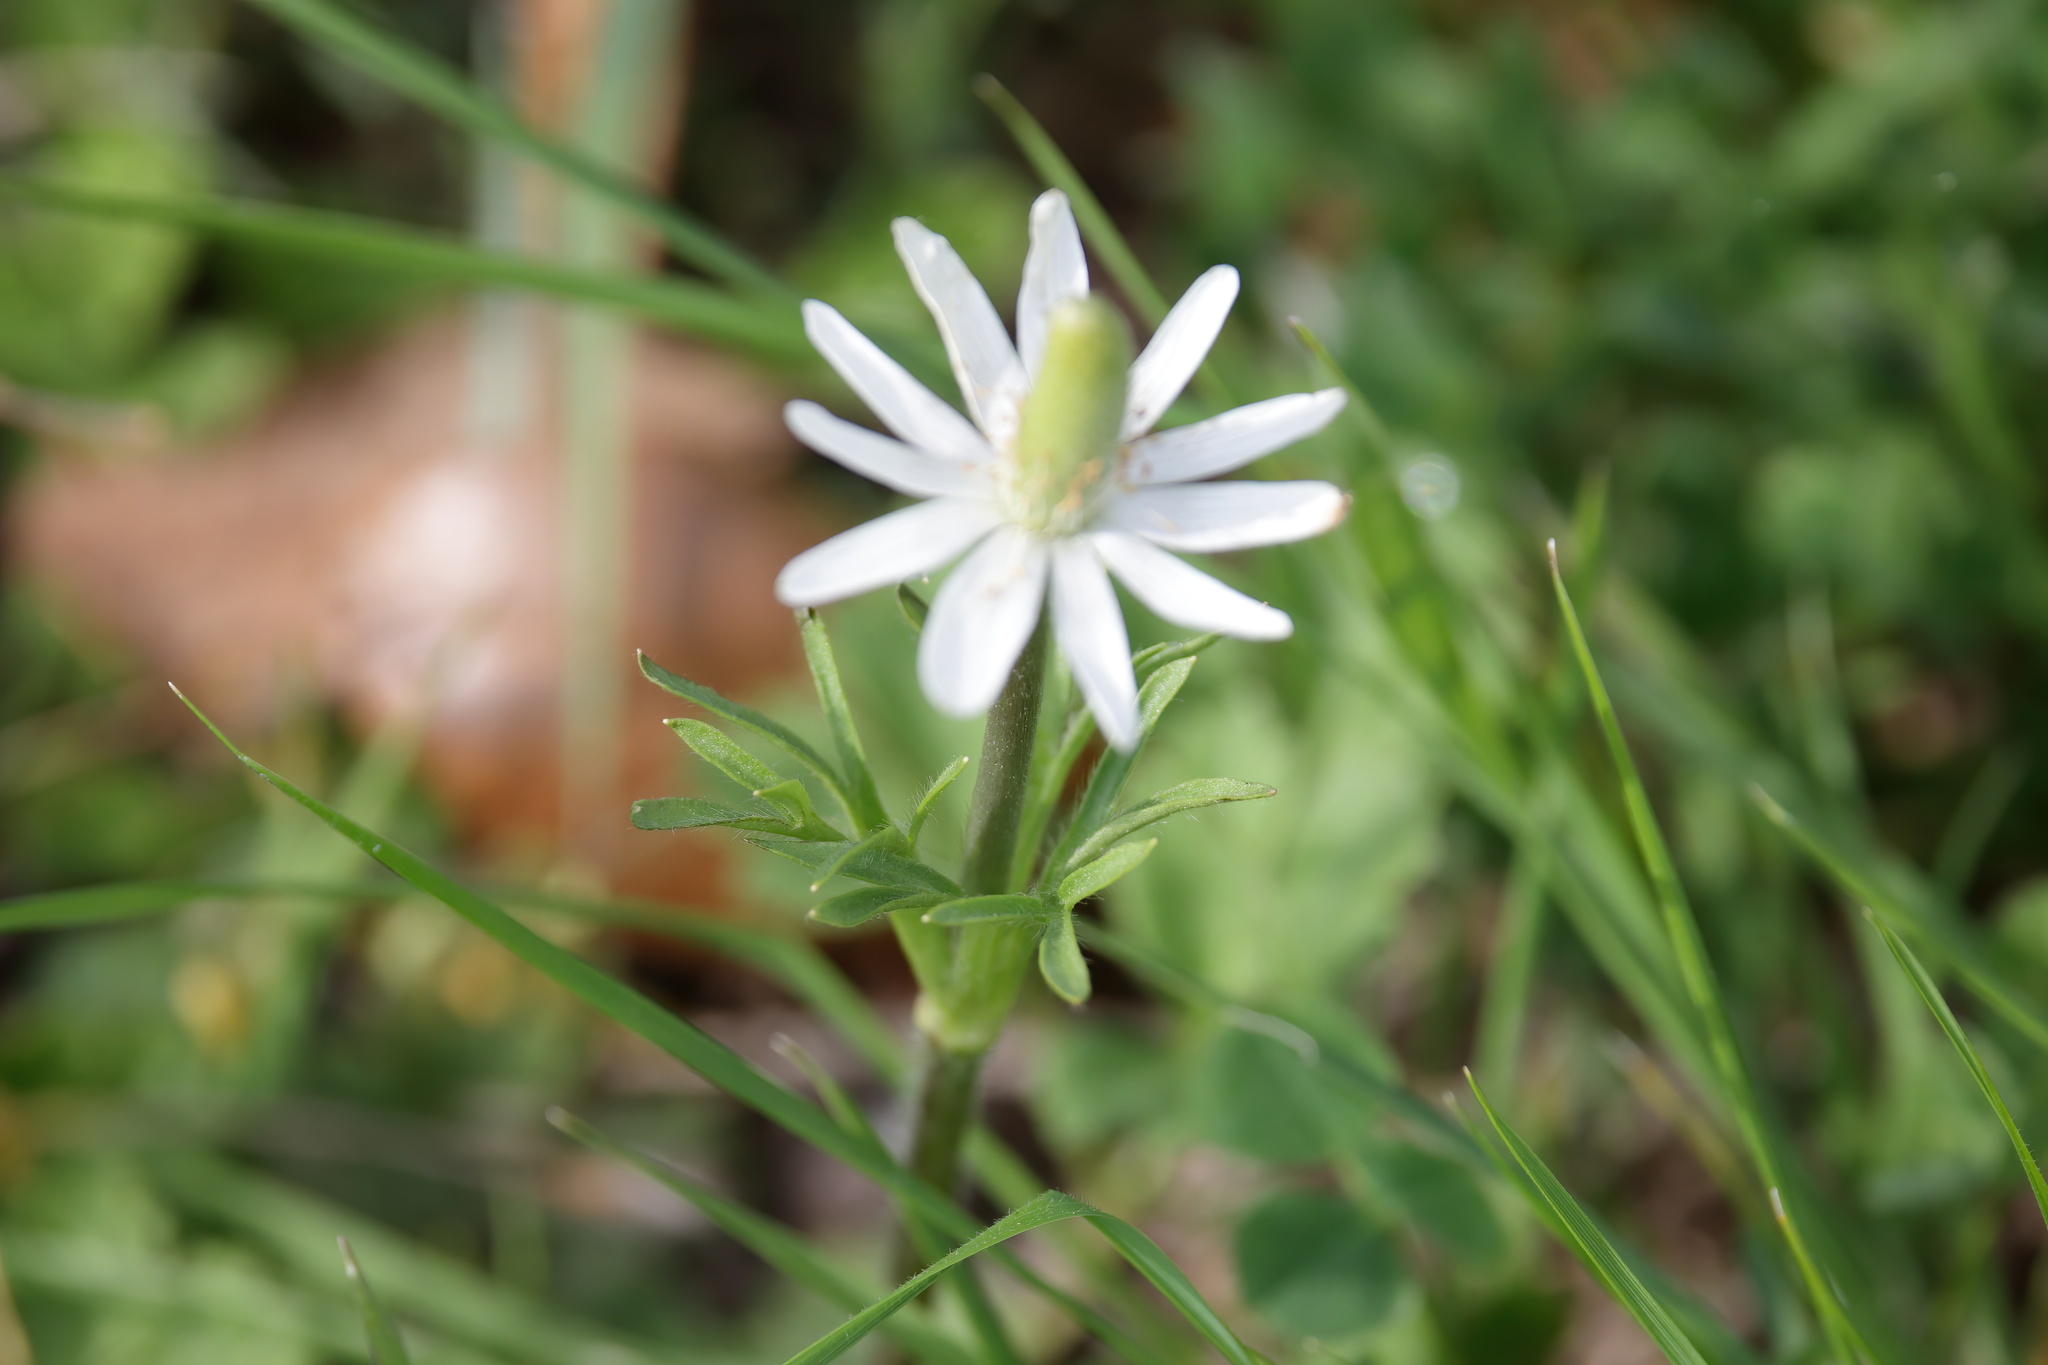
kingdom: Plantae
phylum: Tracheophyta
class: Magnoliopsida
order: Ranunculales
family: Ranunculaceae
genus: Anemone
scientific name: Anemone berlandieri
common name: Ten-petal anemone
